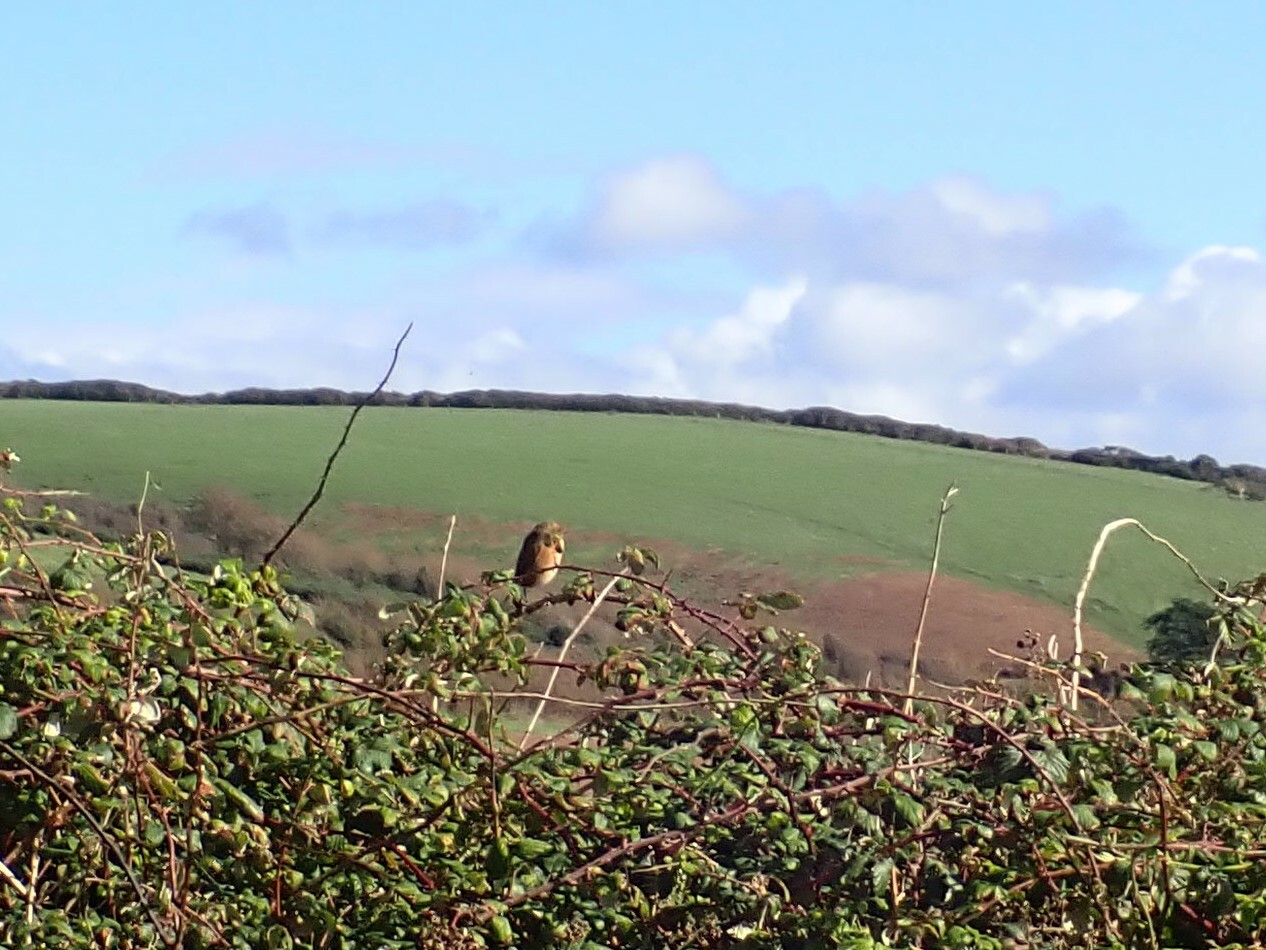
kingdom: Animalia
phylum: Chordata
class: Aves
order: Passeriformes
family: Muscicapidae
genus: Saxicola
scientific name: Saxicola rubicola
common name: European stonechat
